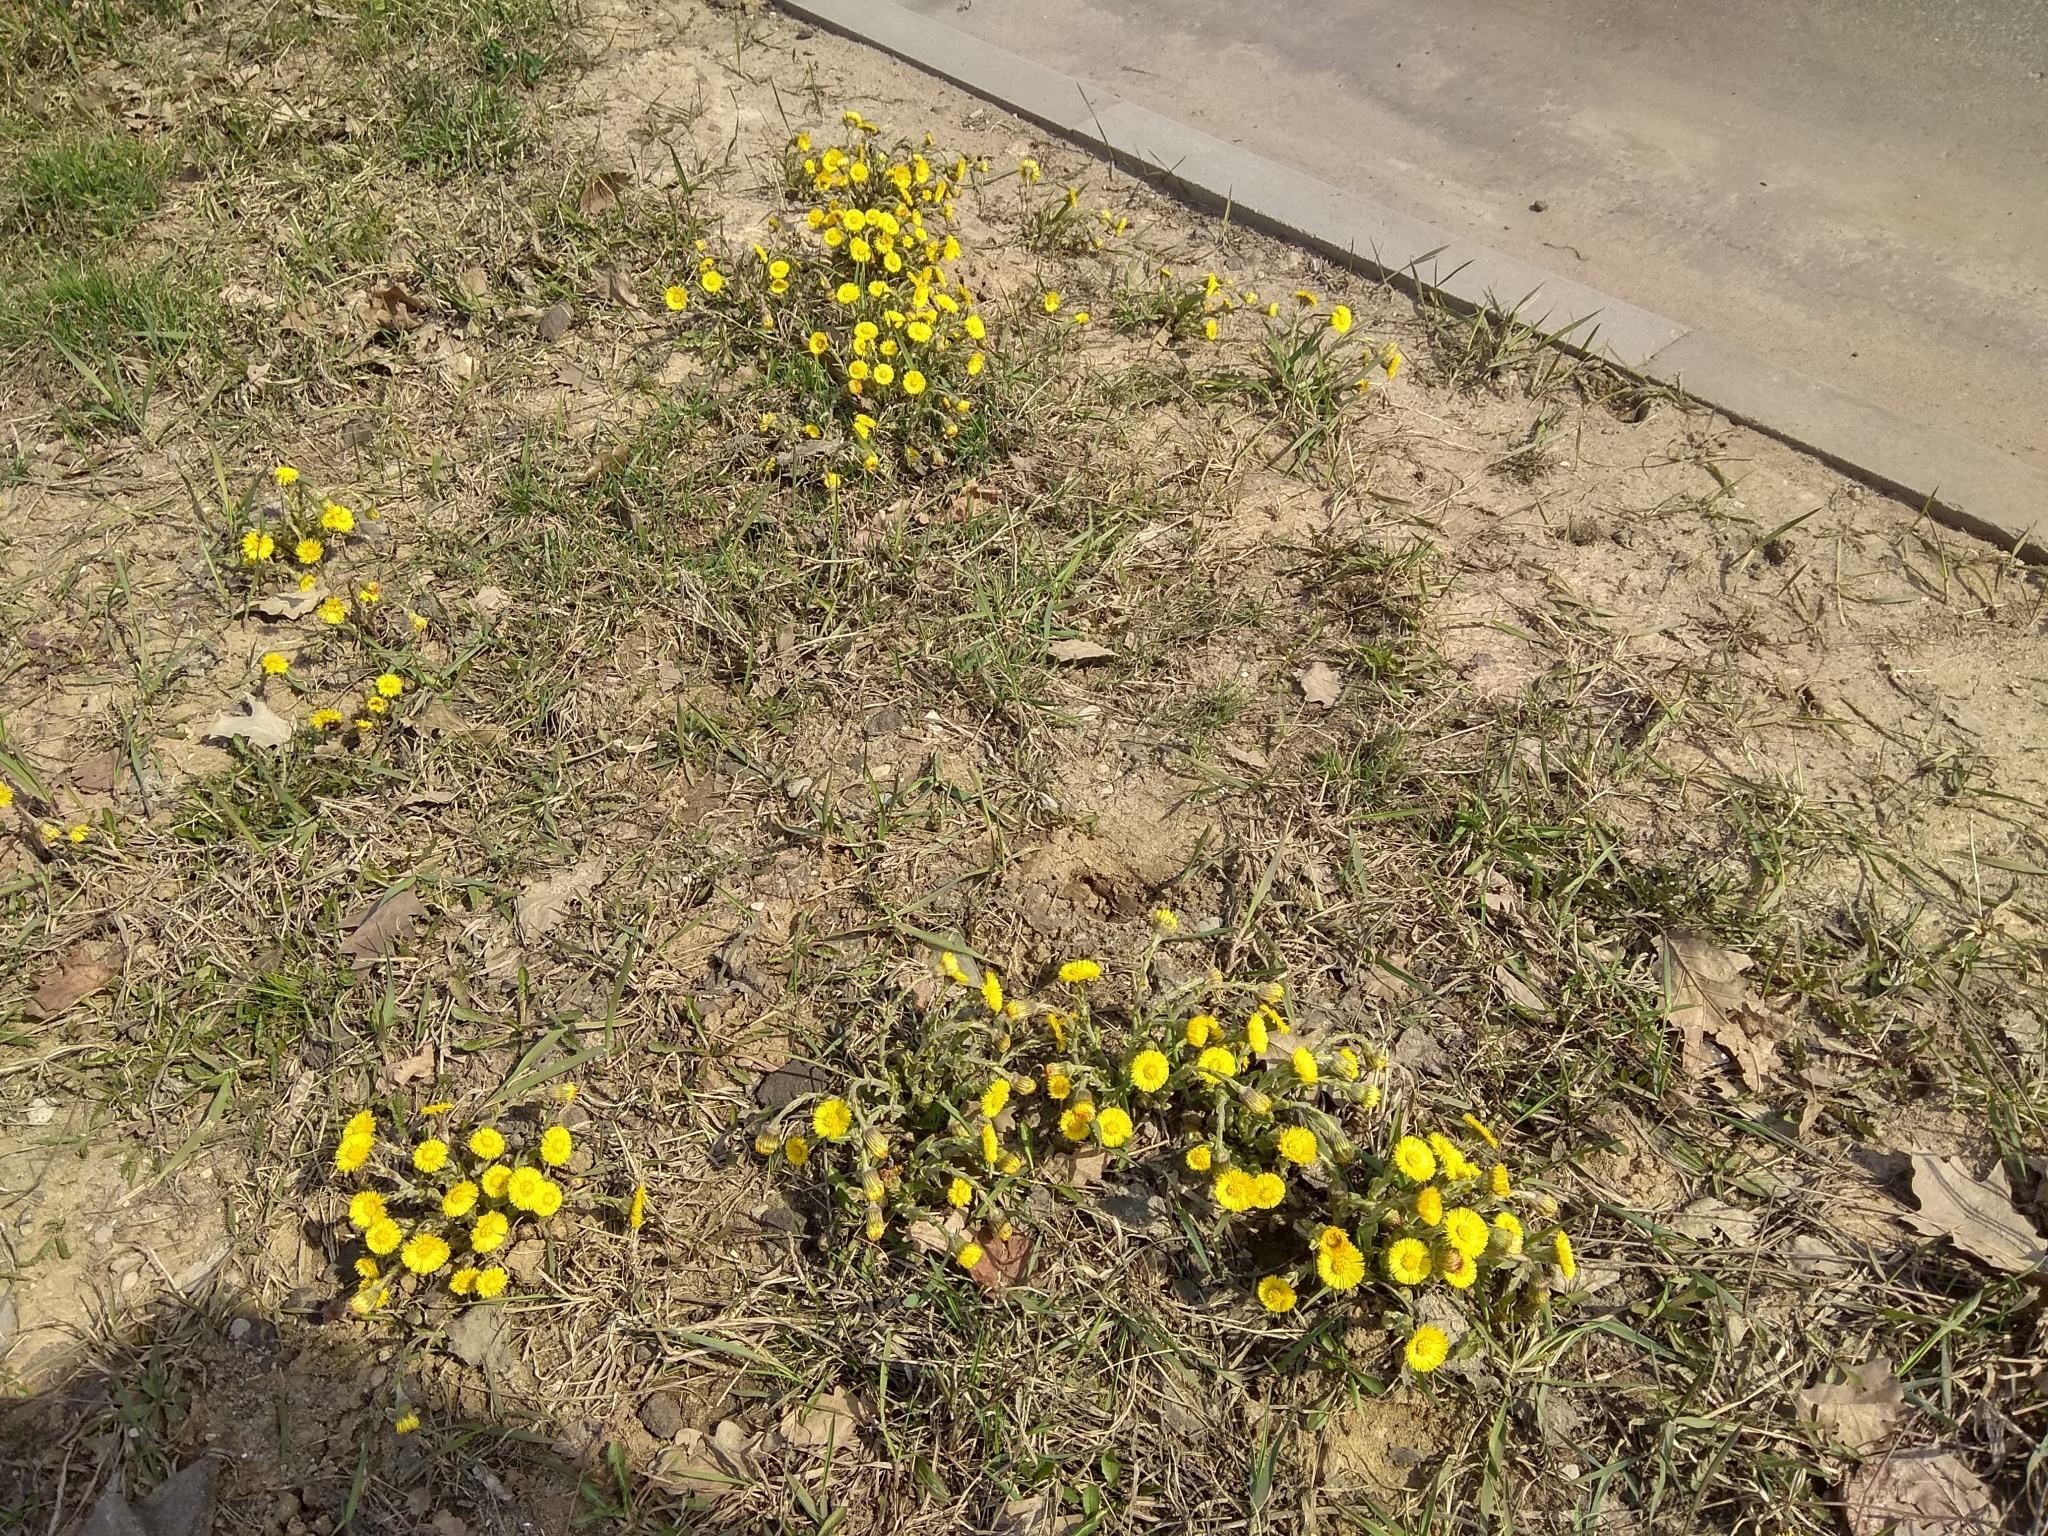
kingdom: Plantae
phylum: Tracheophyta
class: Magnoliopsida
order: Asterales
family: Asteraceae
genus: Tussilago
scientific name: Tussilago farfara
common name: Coltsfoot
